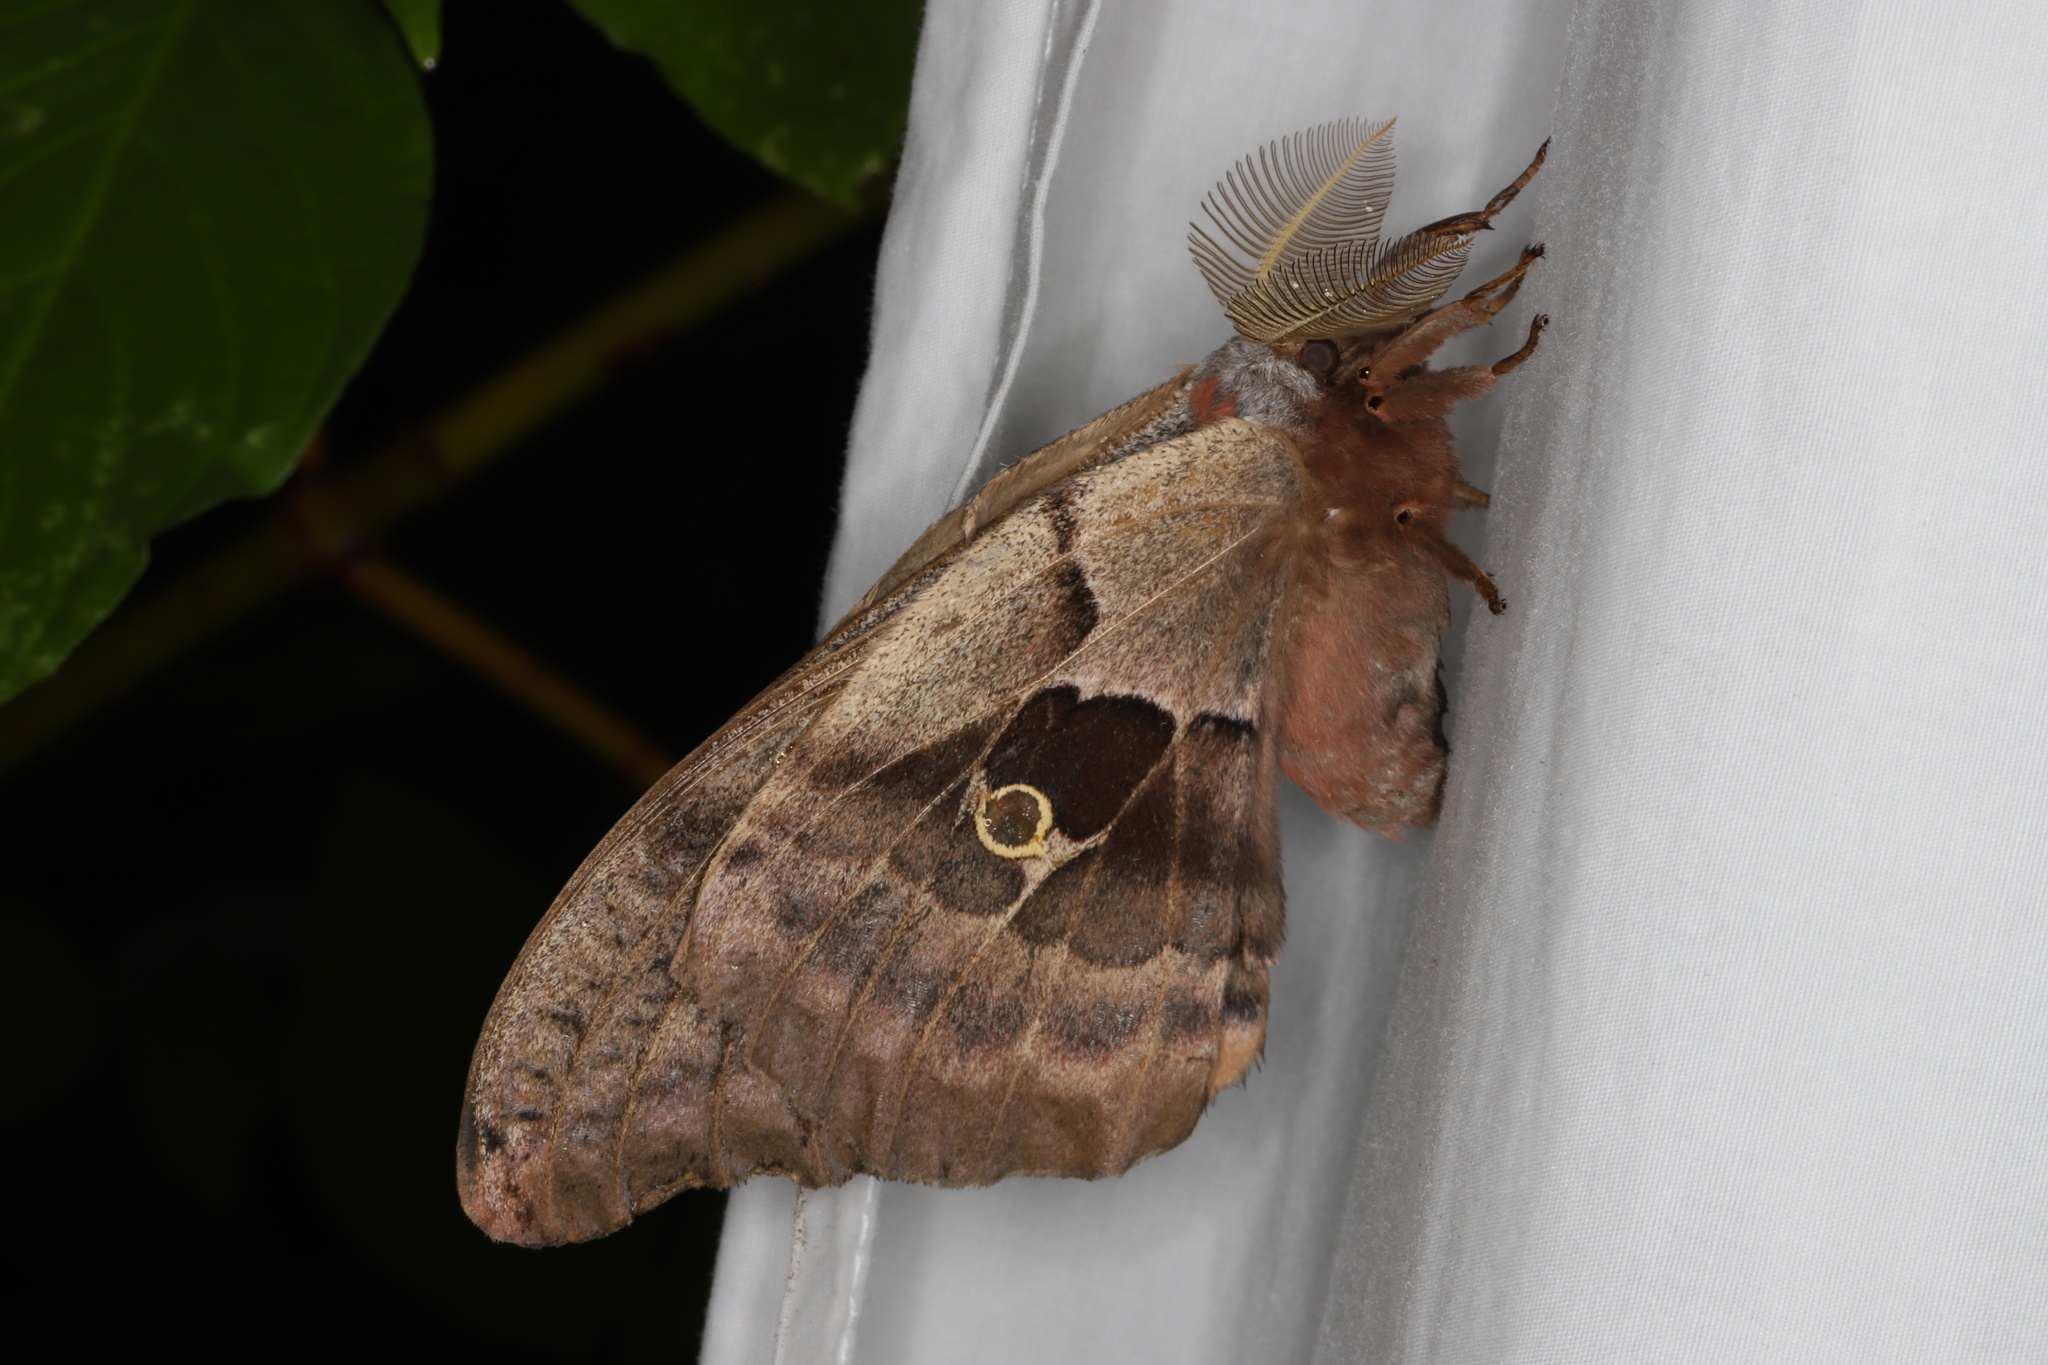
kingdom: Animalia
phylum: Arthropoda
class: Insecta
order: Lepidoptera
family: Saturniidae
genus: Antheraea
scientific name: Antheraea polyphemus
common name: Polyphemus moth
